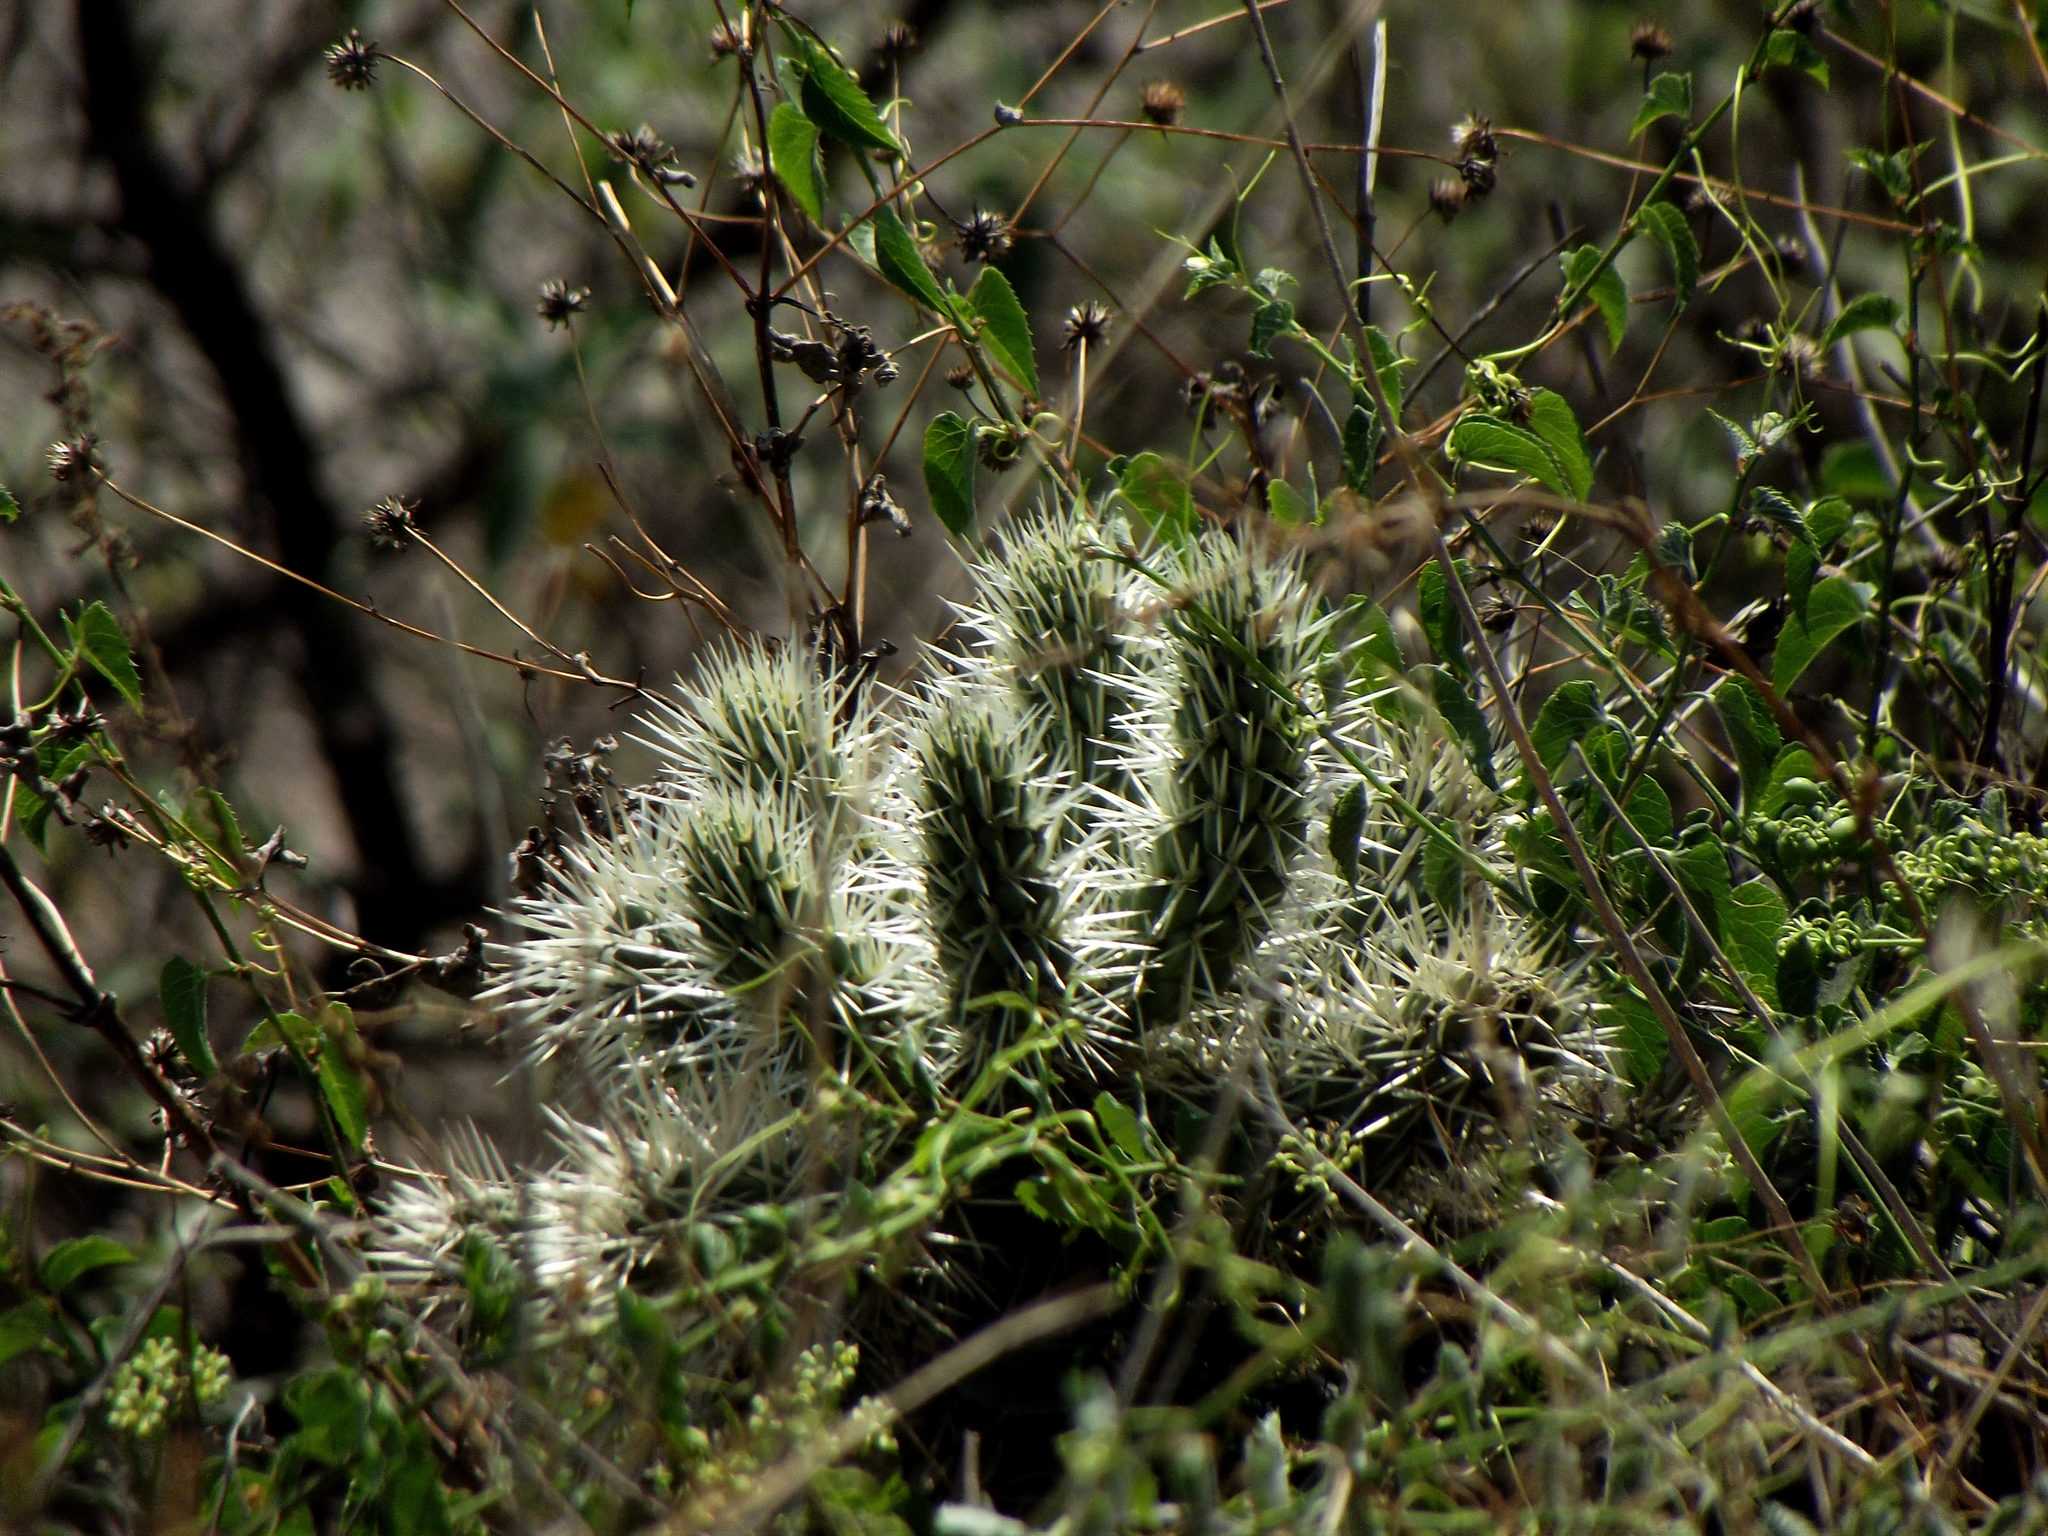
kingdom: Plantae
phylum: Tracheophyta
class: Magnoliopsida
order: Caryophyllales
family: Cactaceae
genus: Cylindropuntia
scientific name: Cylindropuntia tunicata
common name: Sheathed cholla
